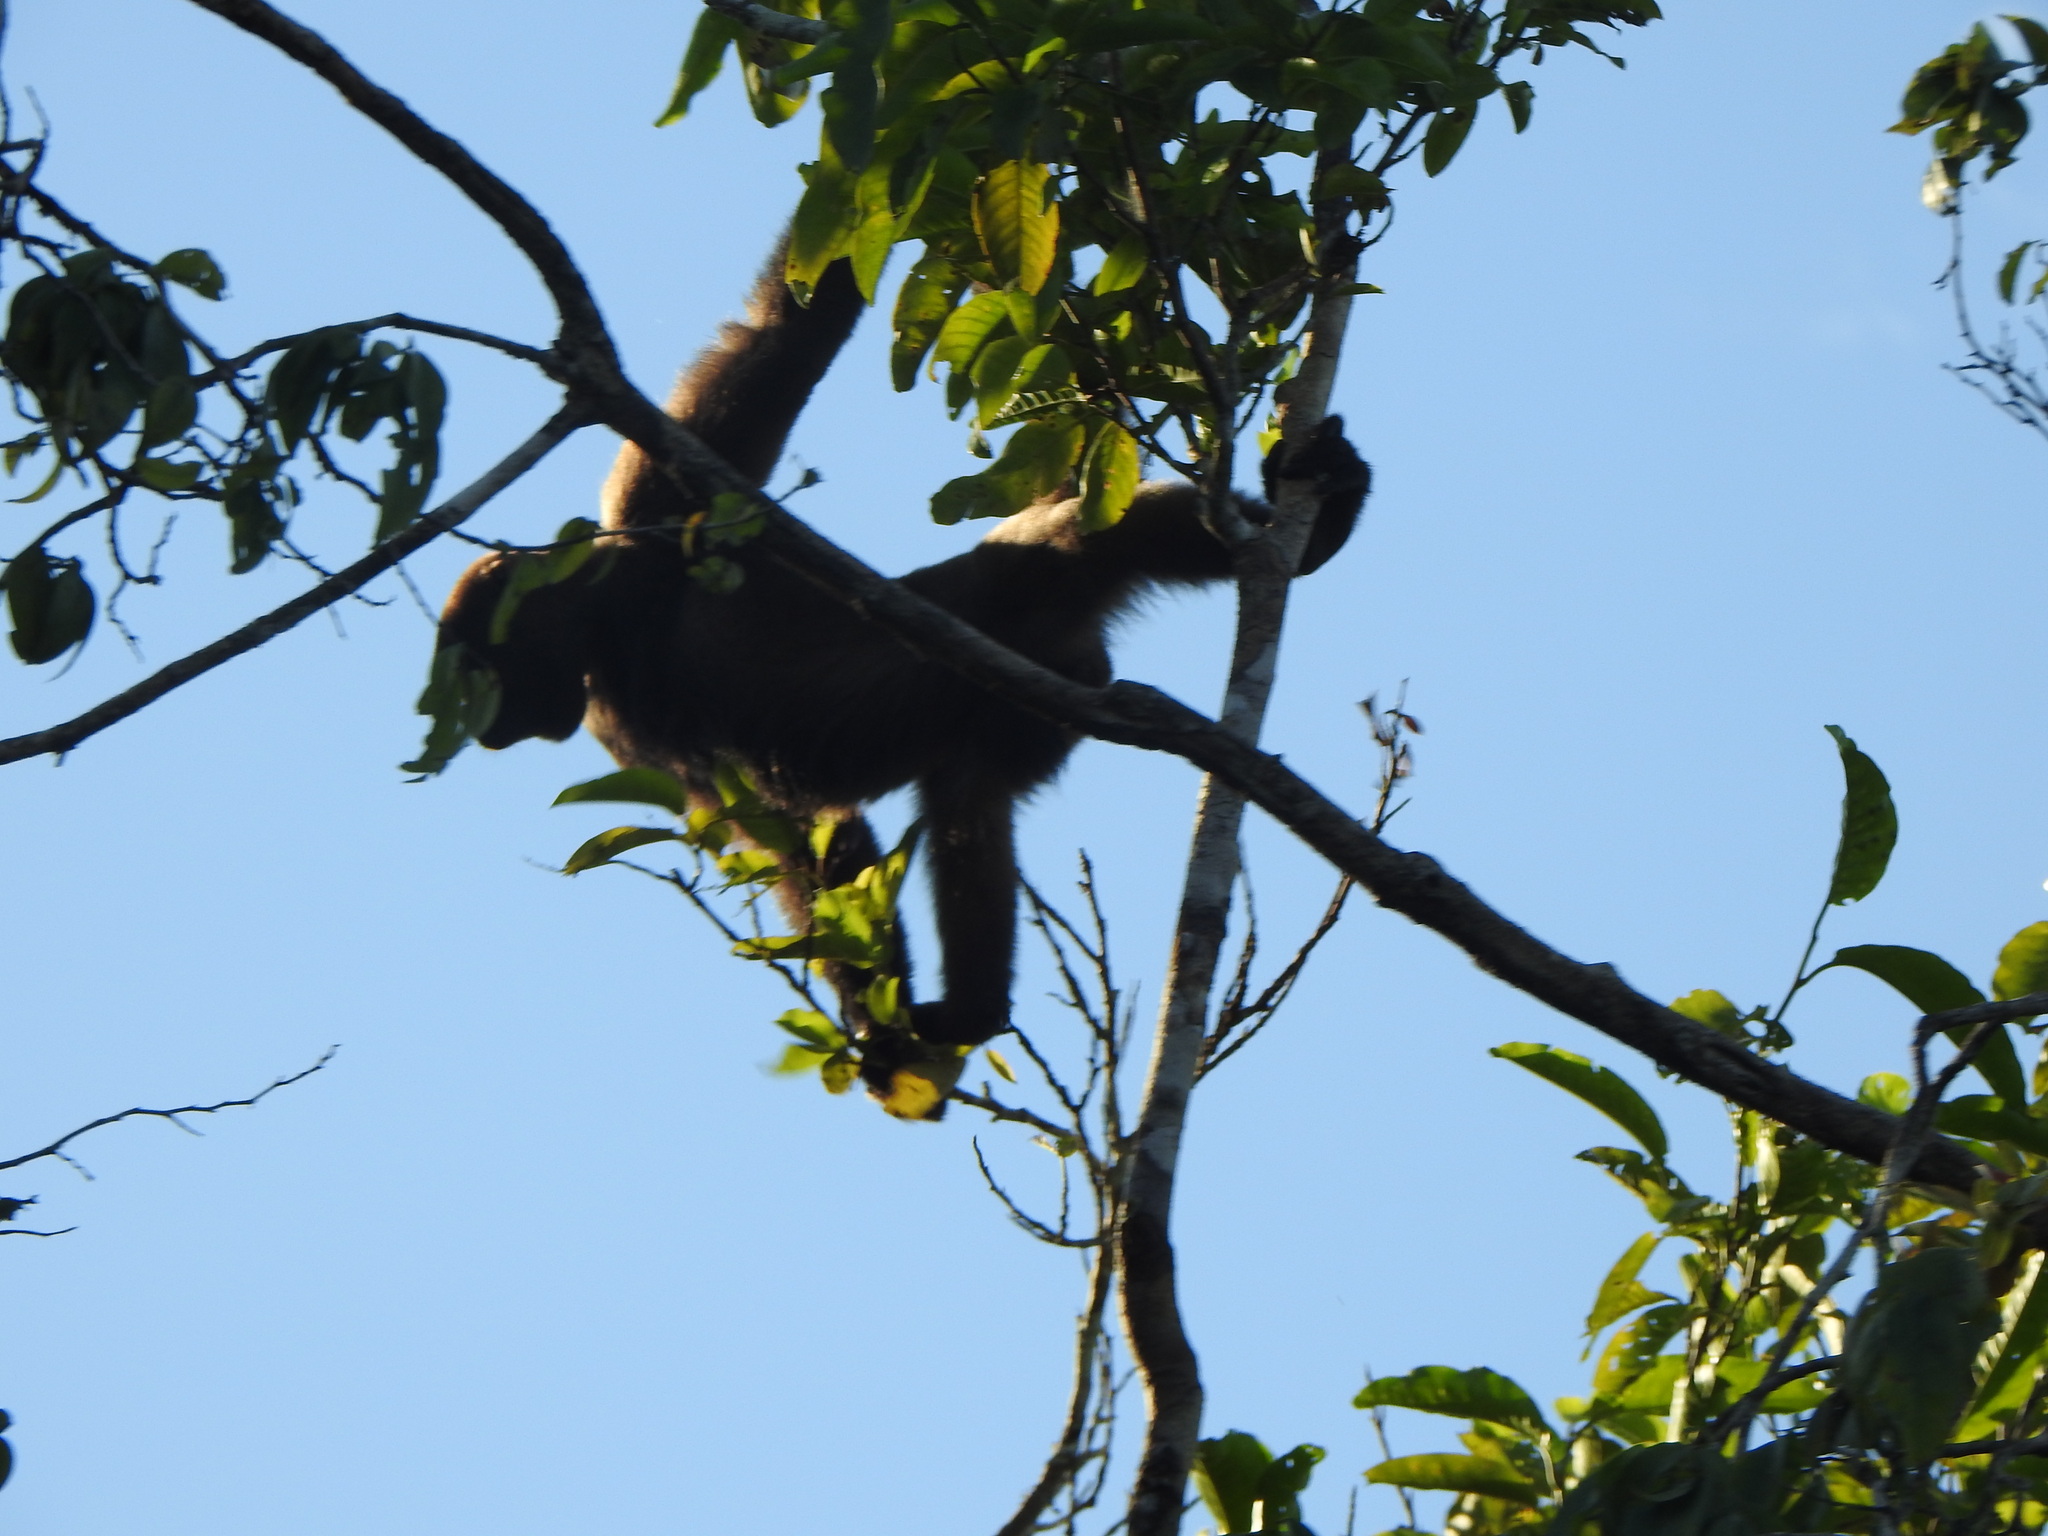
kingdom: Animalia
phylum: Chordata
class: Mammalia
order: Primates
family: Atelidae
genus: Lagothrix
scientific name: Lagothrix lagothricha
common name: Brown woolly monkey
